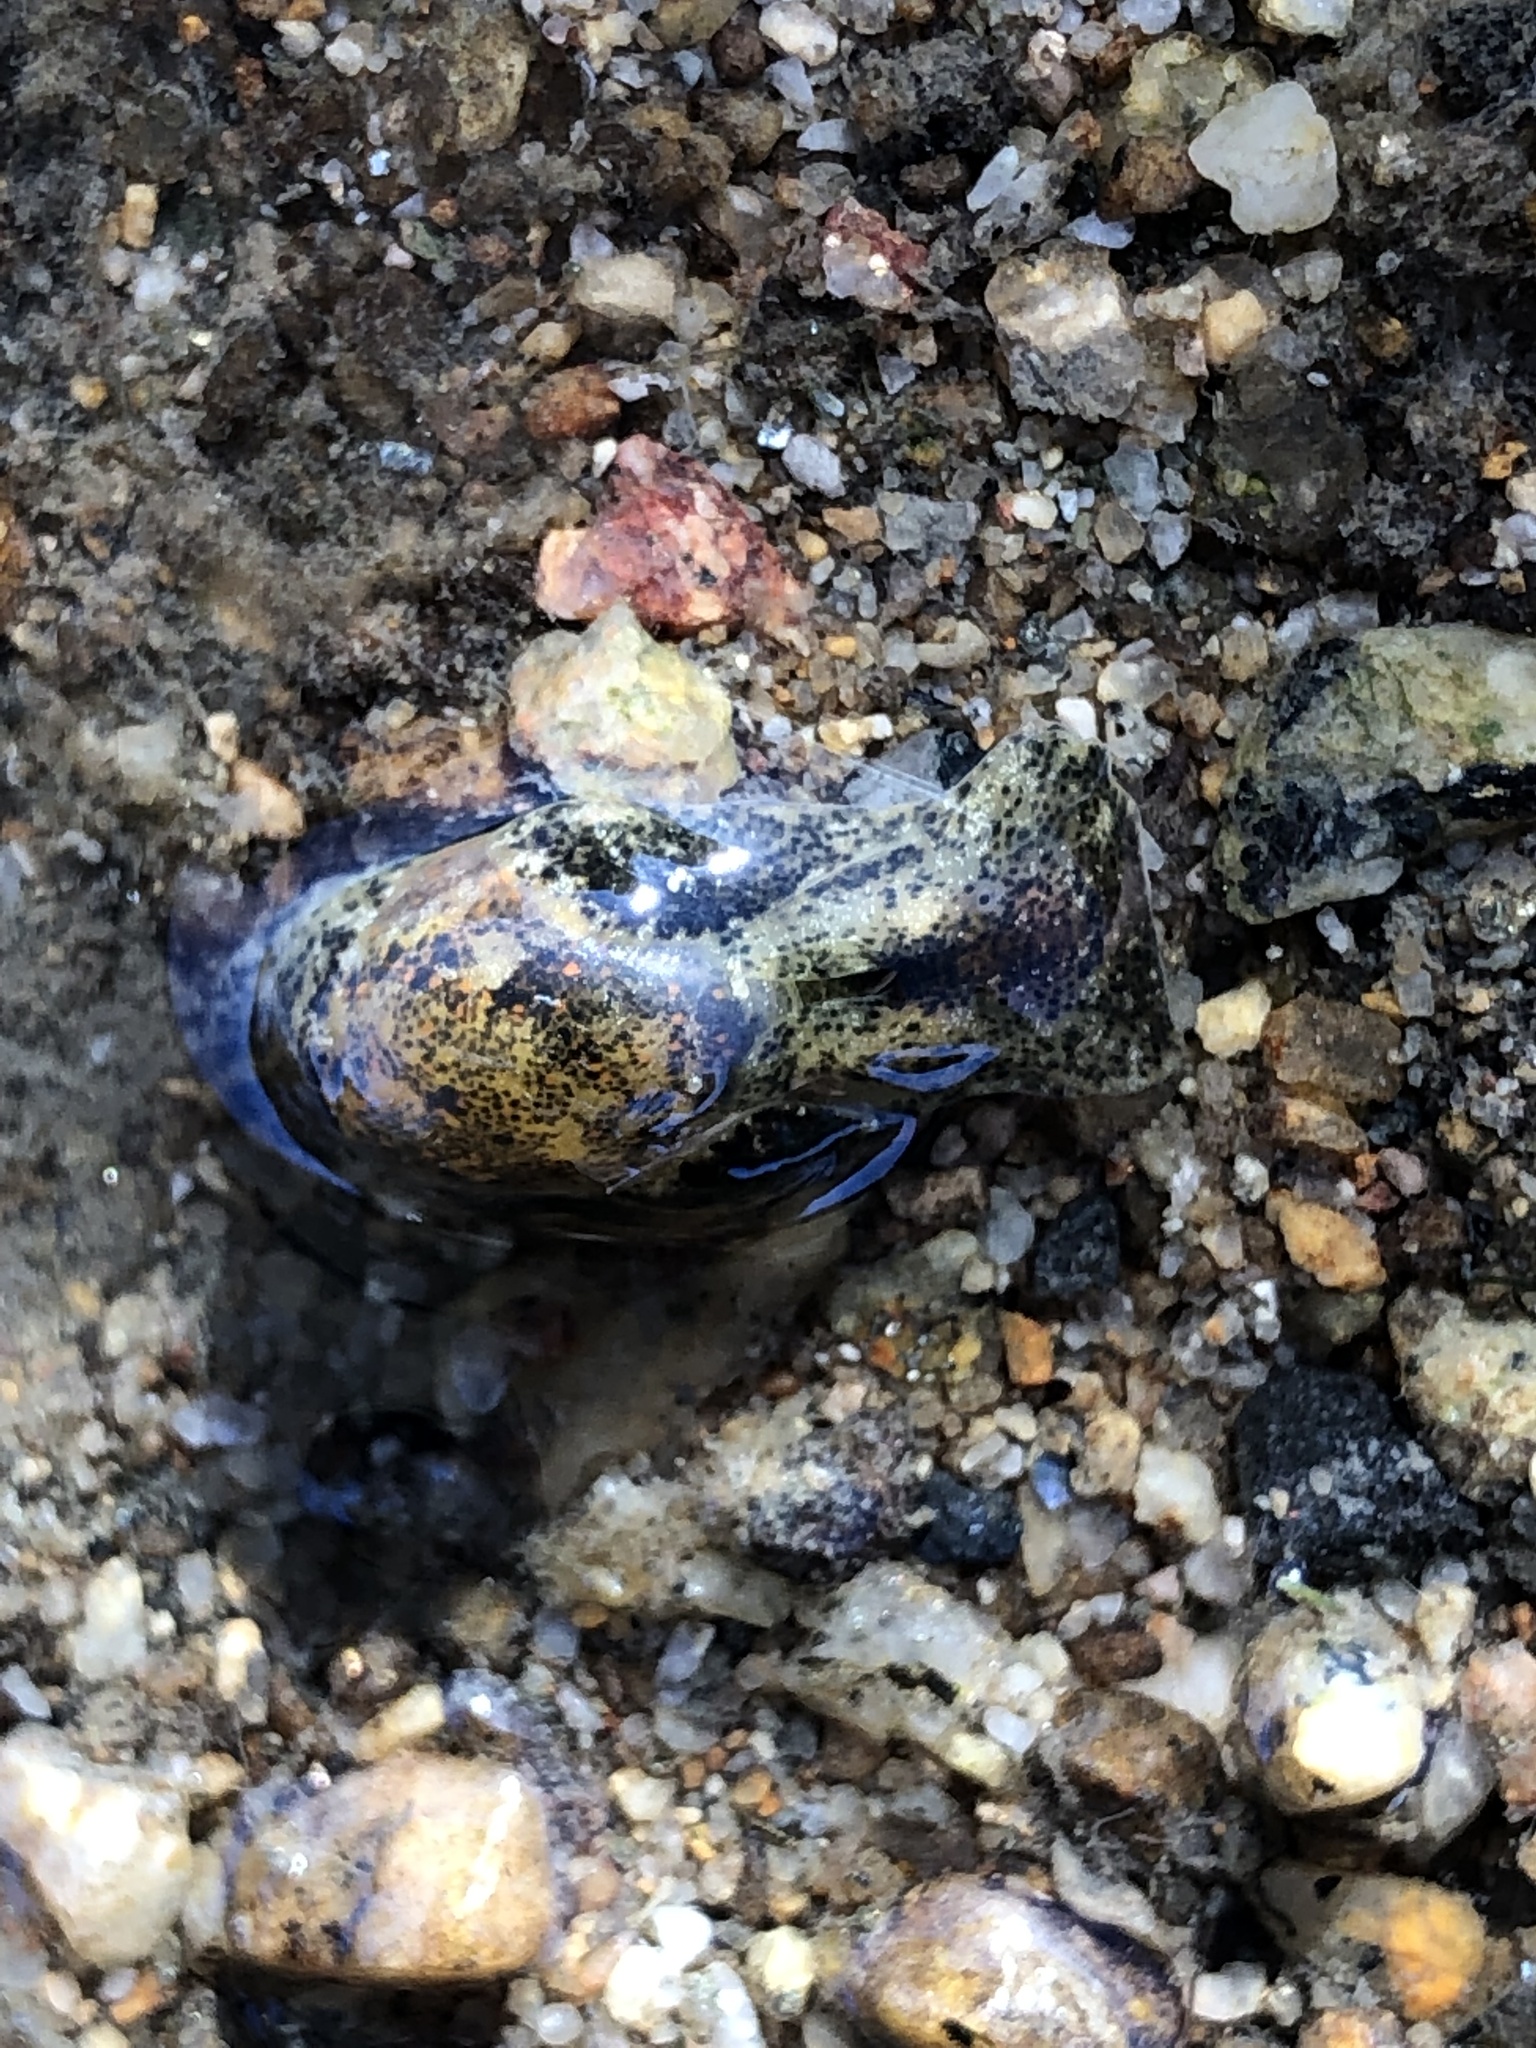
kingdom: Animalia
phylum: Mollusca
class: Gastropoda
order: Cephalaspidea
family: Haminoeidae
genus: Haloa
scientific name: Haloa japonica
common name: Japanese bubble snail
